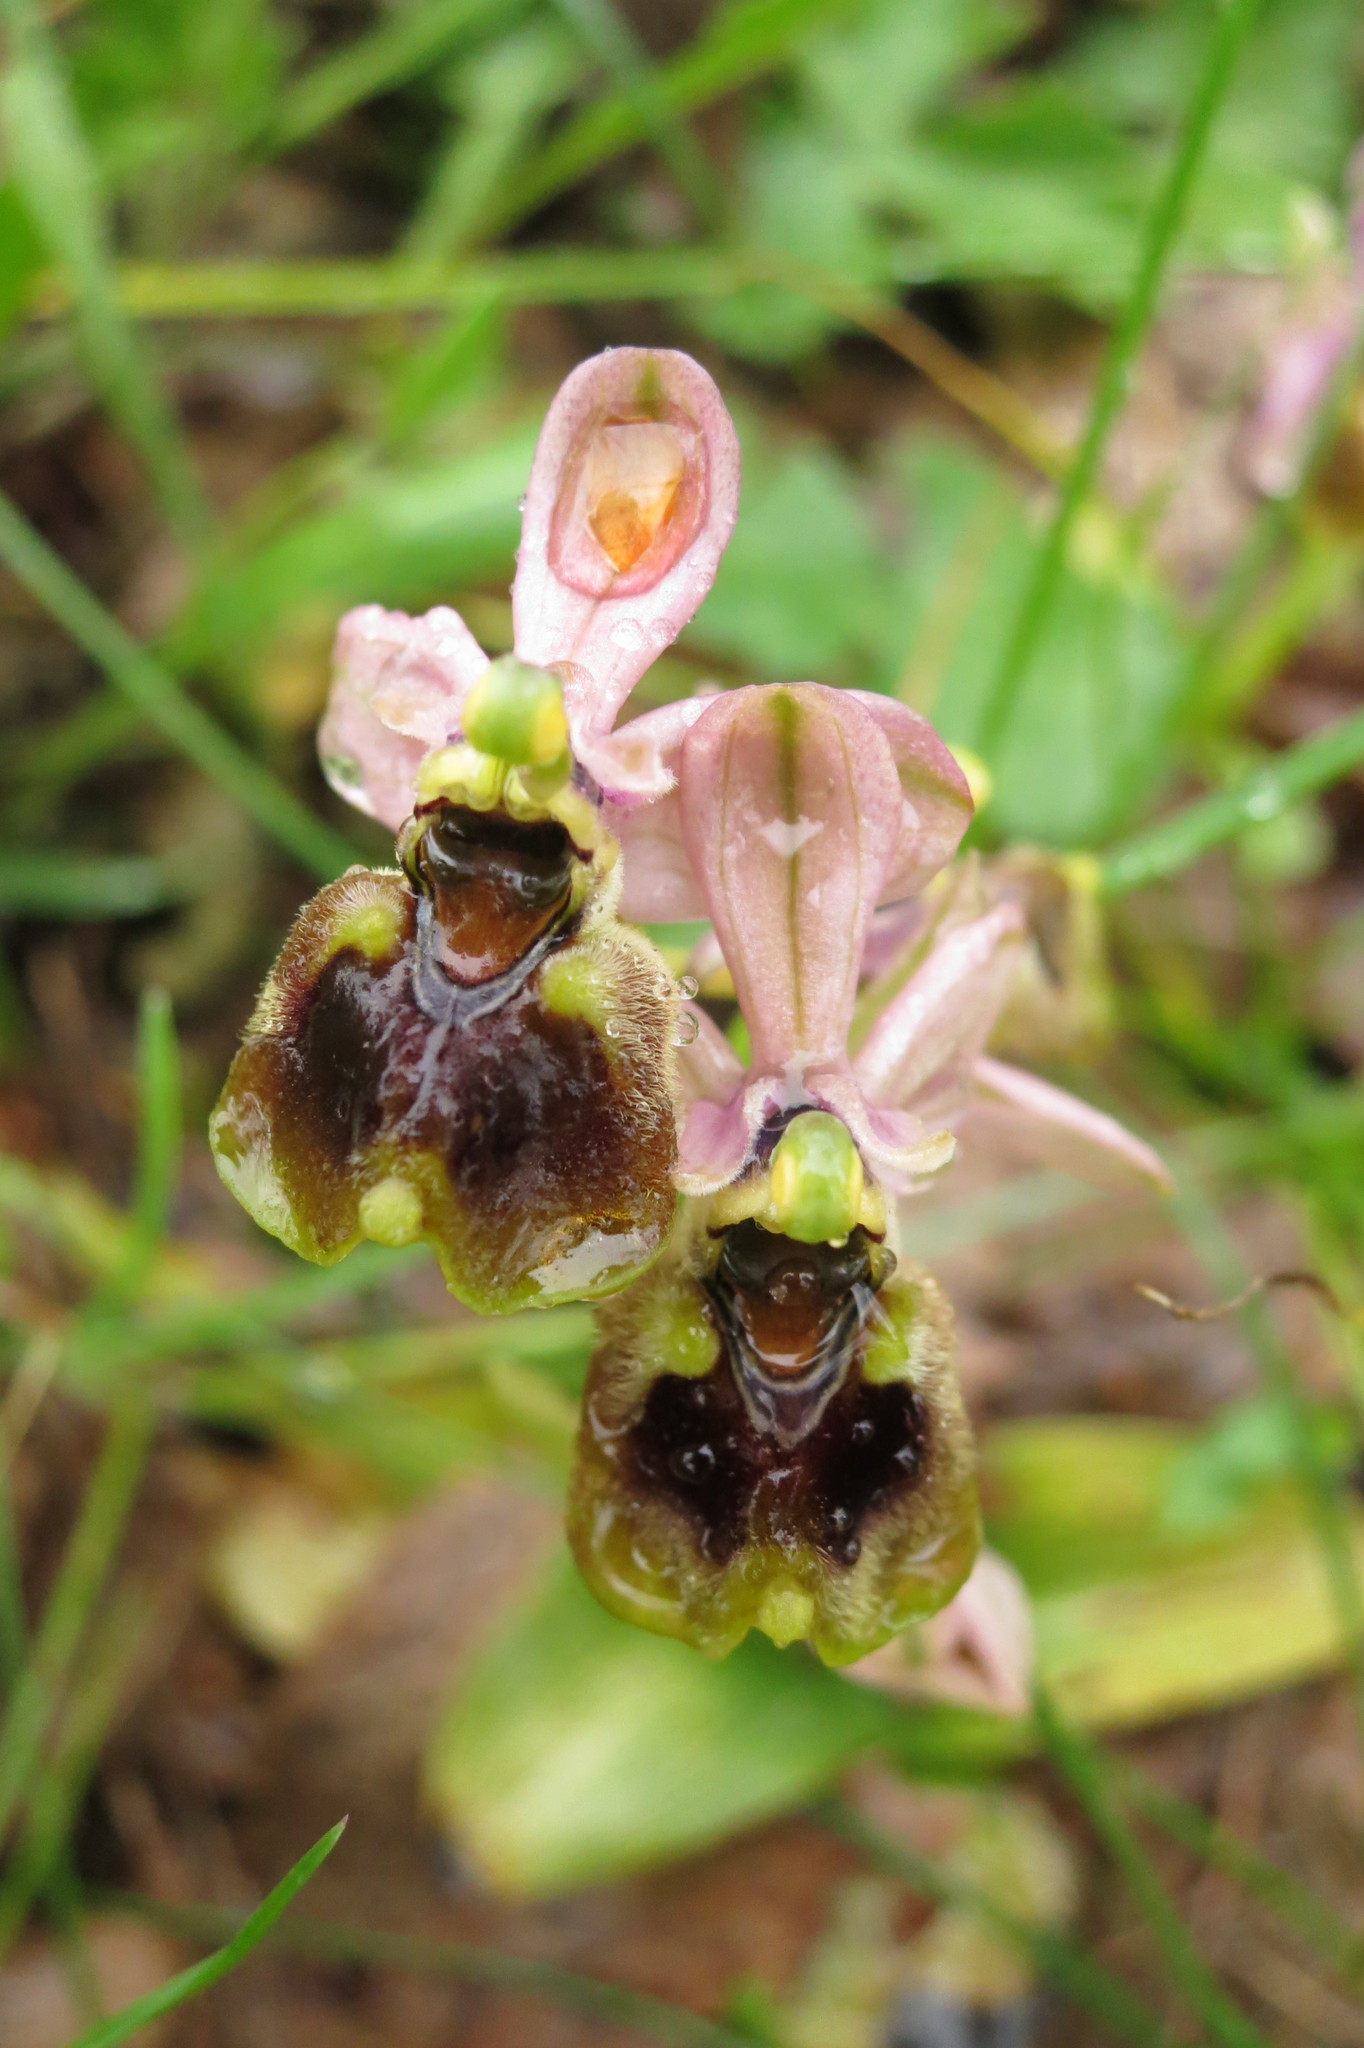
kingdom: Plantae
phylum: Tracheophyta
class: Liliopsida
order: Asparagales
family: Orchidaceae
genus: Ophrys
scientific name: Ophrys tenthredinifera
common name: Sawfly orchid
